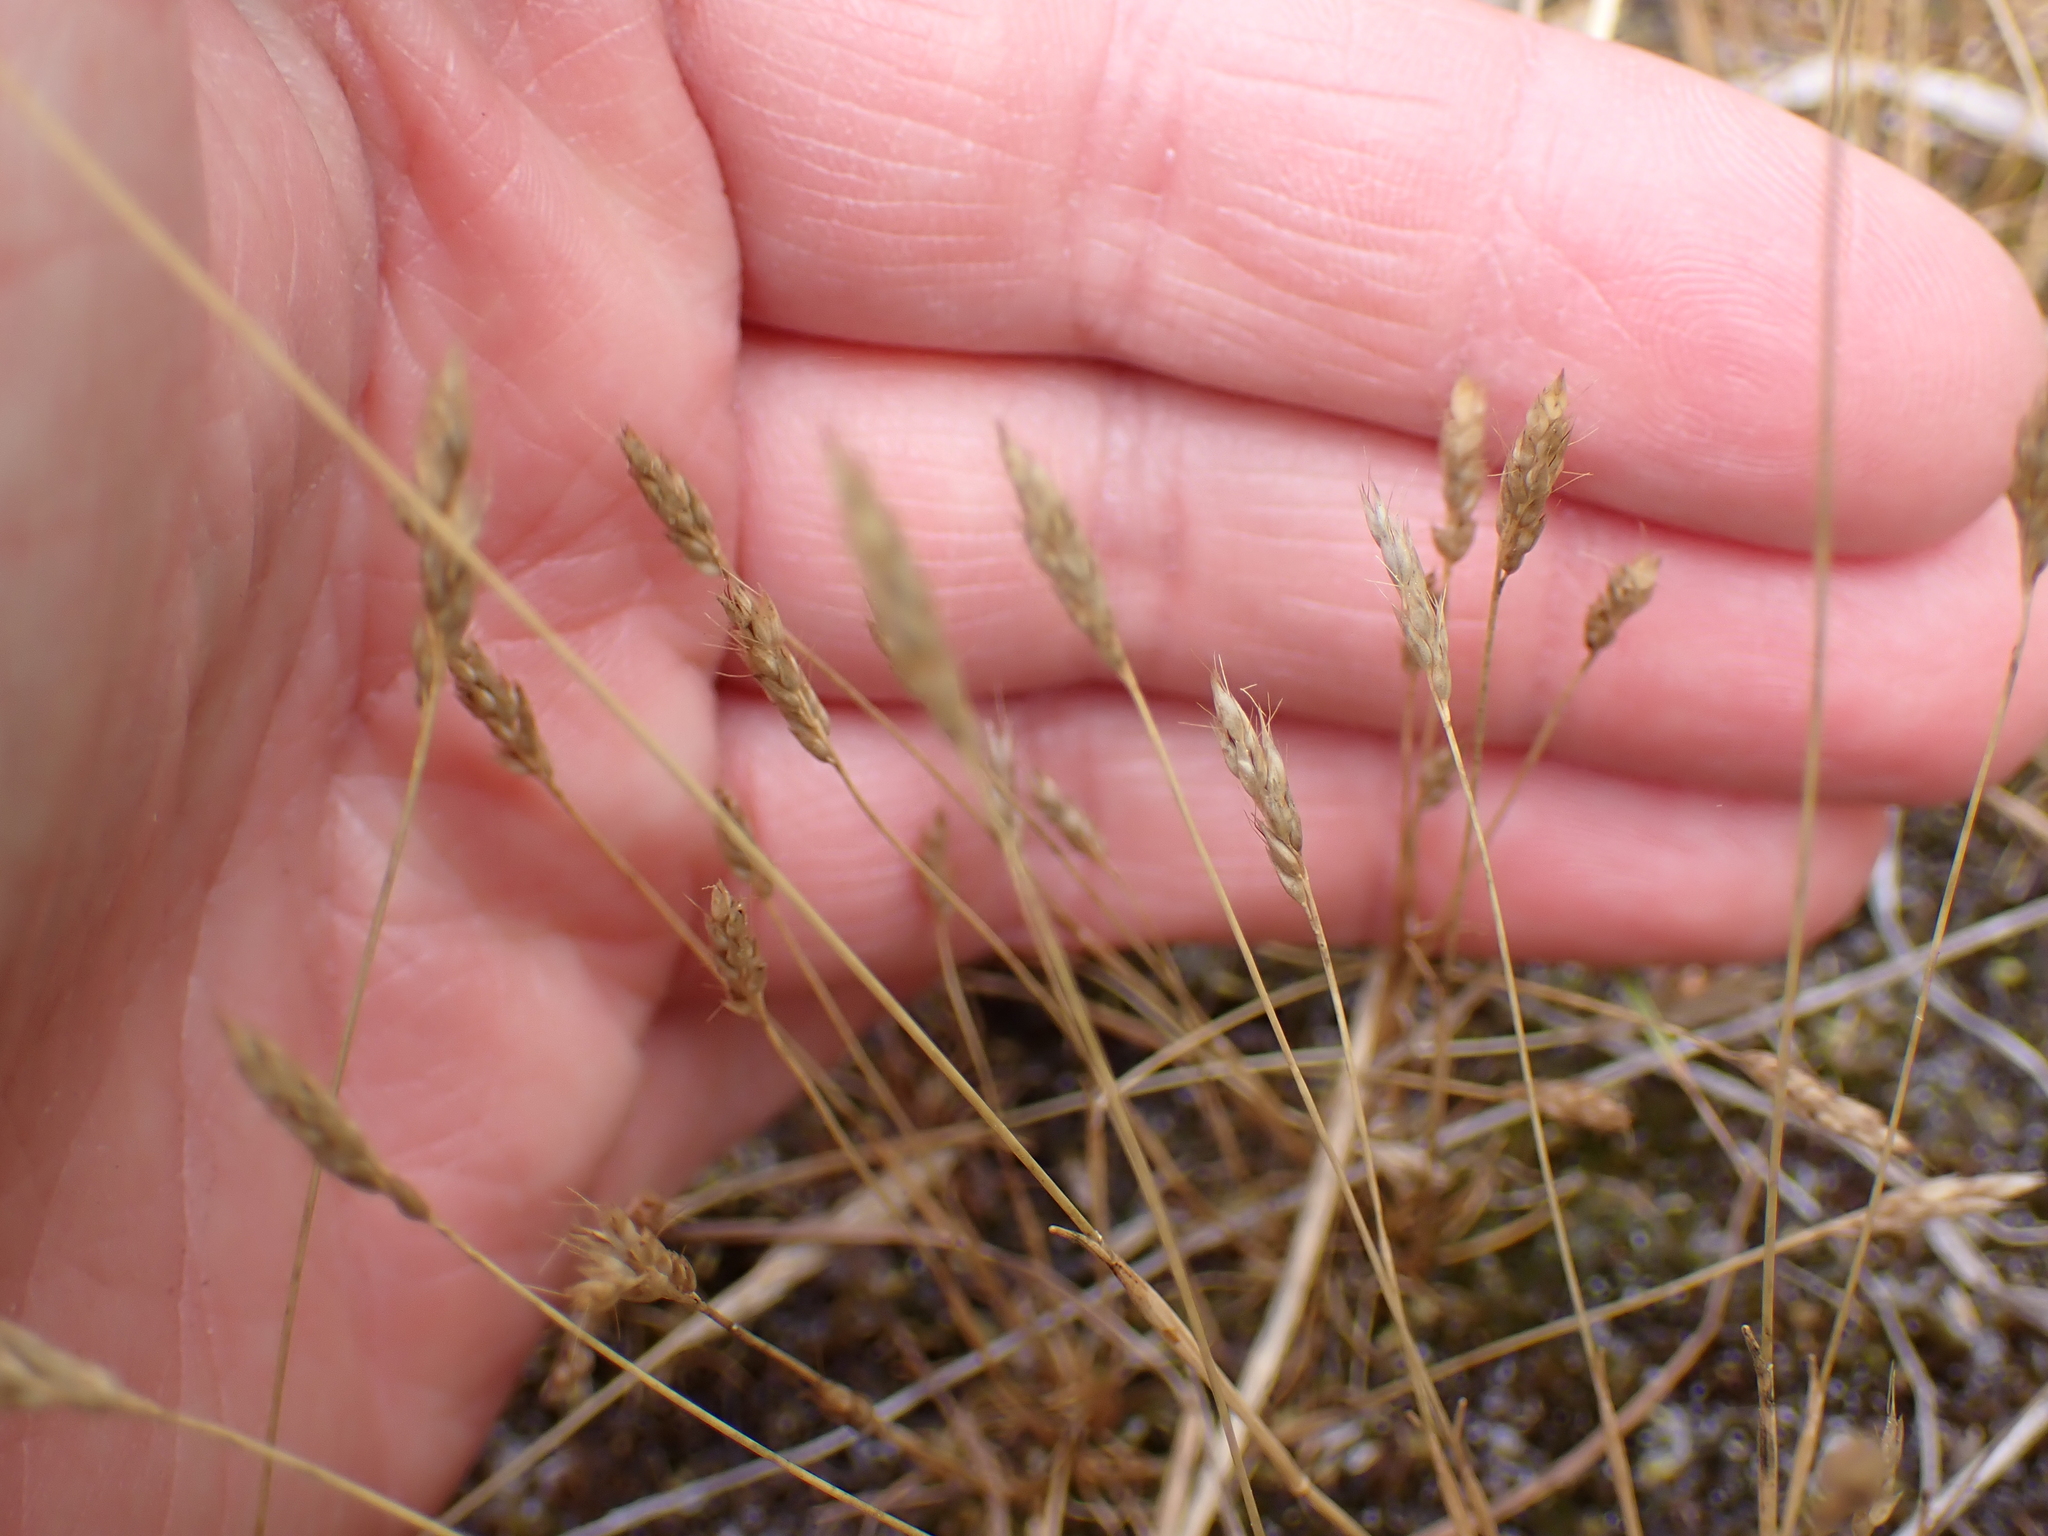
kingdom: Plantae
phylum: Tracheophyta
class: Liliopsida
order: Poales
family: Poaceae
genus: Aira
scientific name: Aira praecox
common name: Early hair-grass
